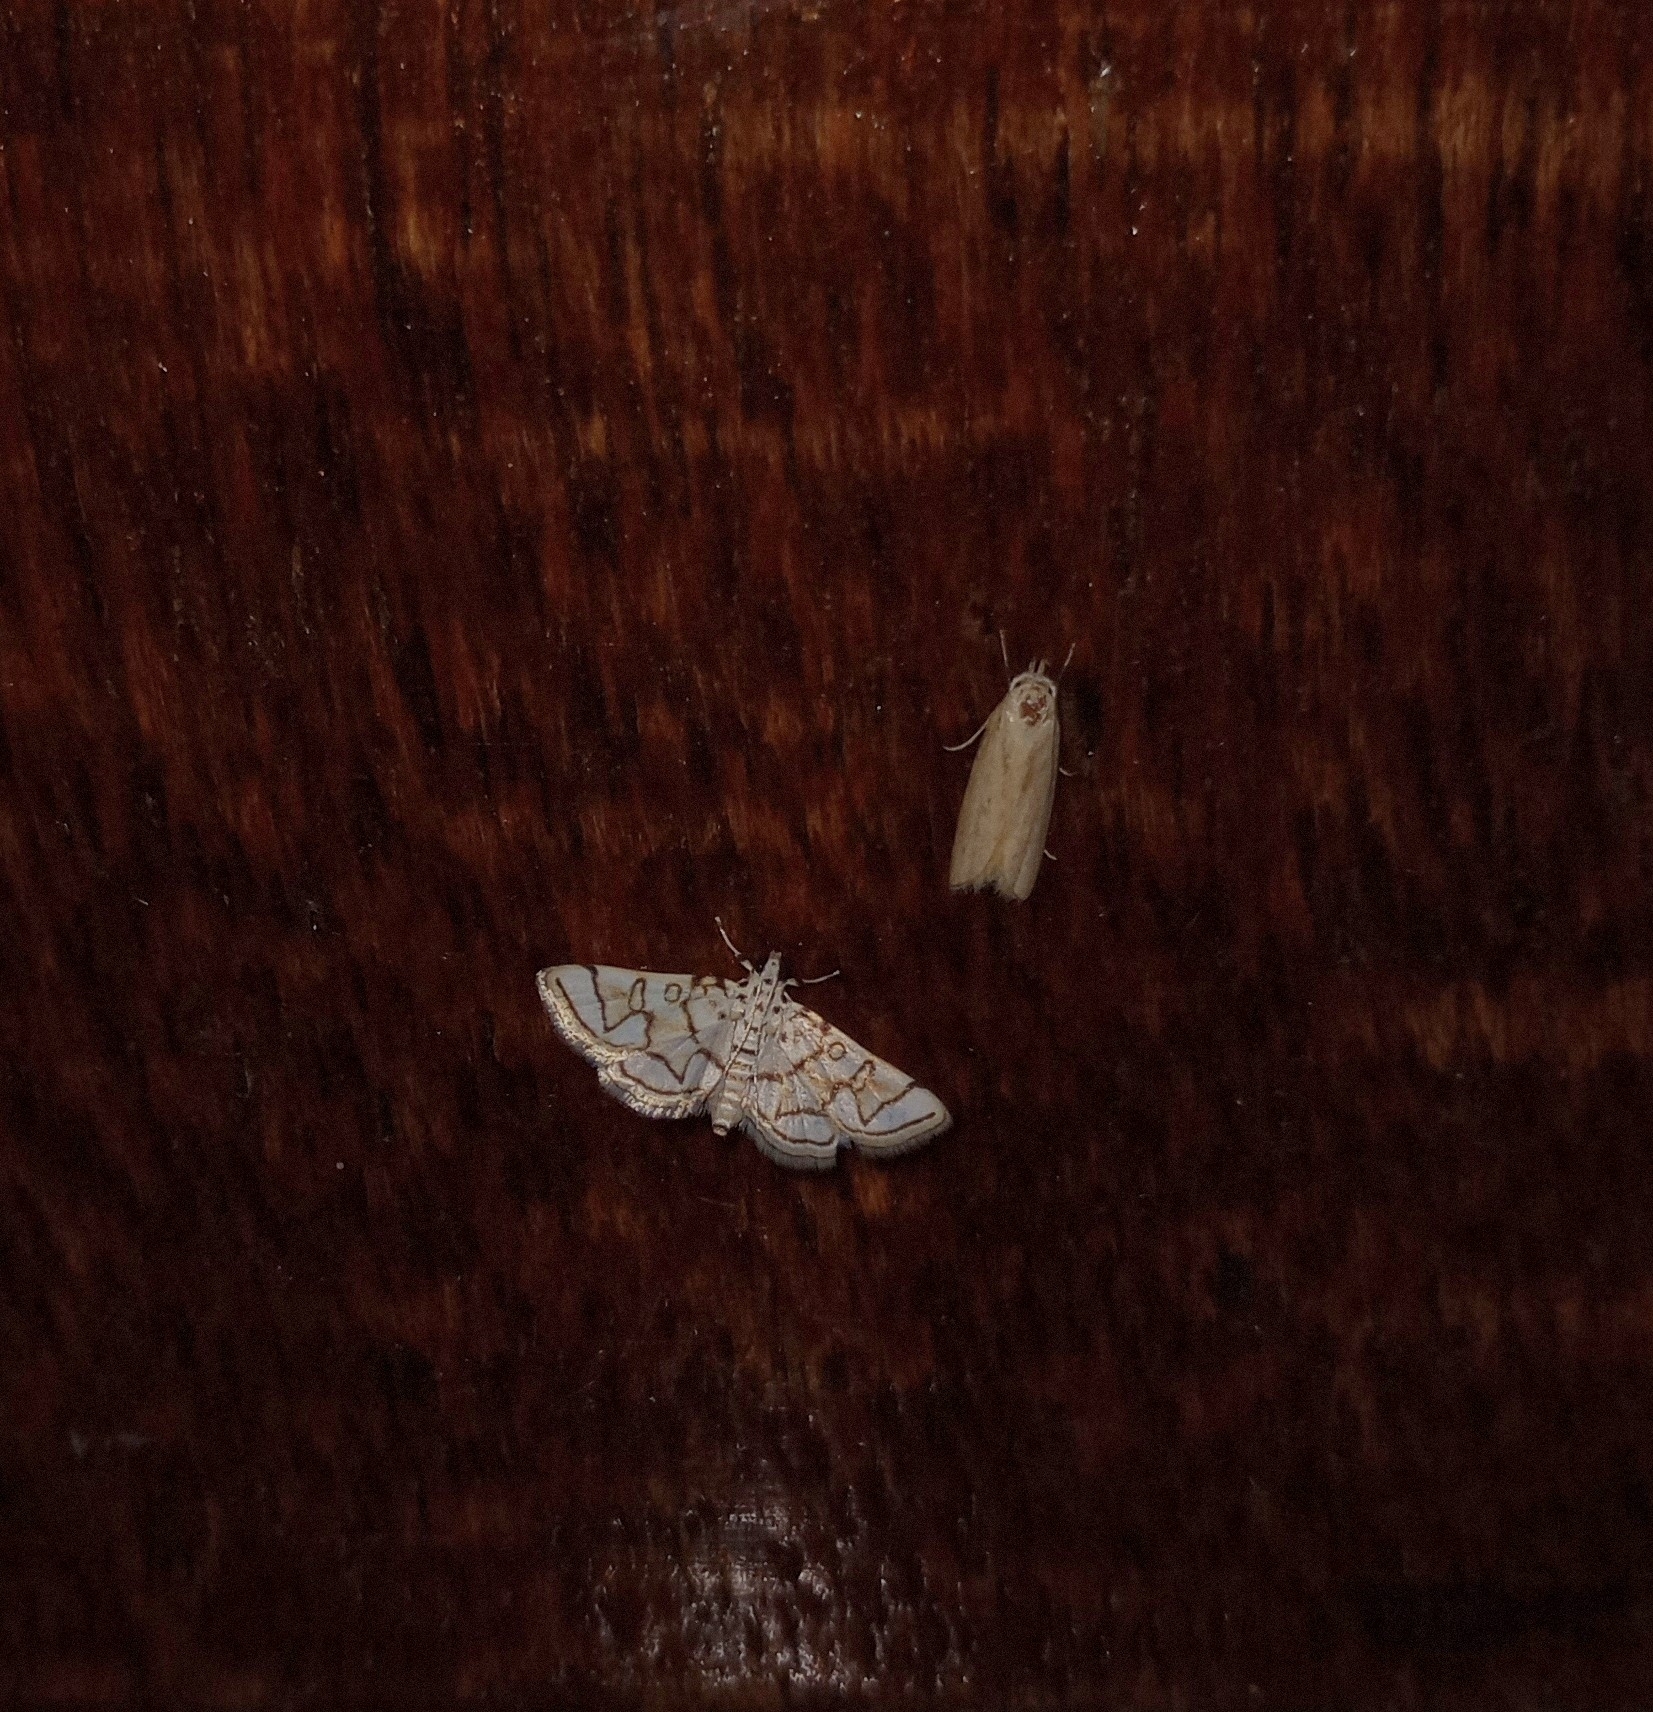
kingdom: Animalia
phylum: Arthropoda
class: Insecta
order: Lepidoptera
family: Crambidae
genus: Elophila
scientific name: Elophila
